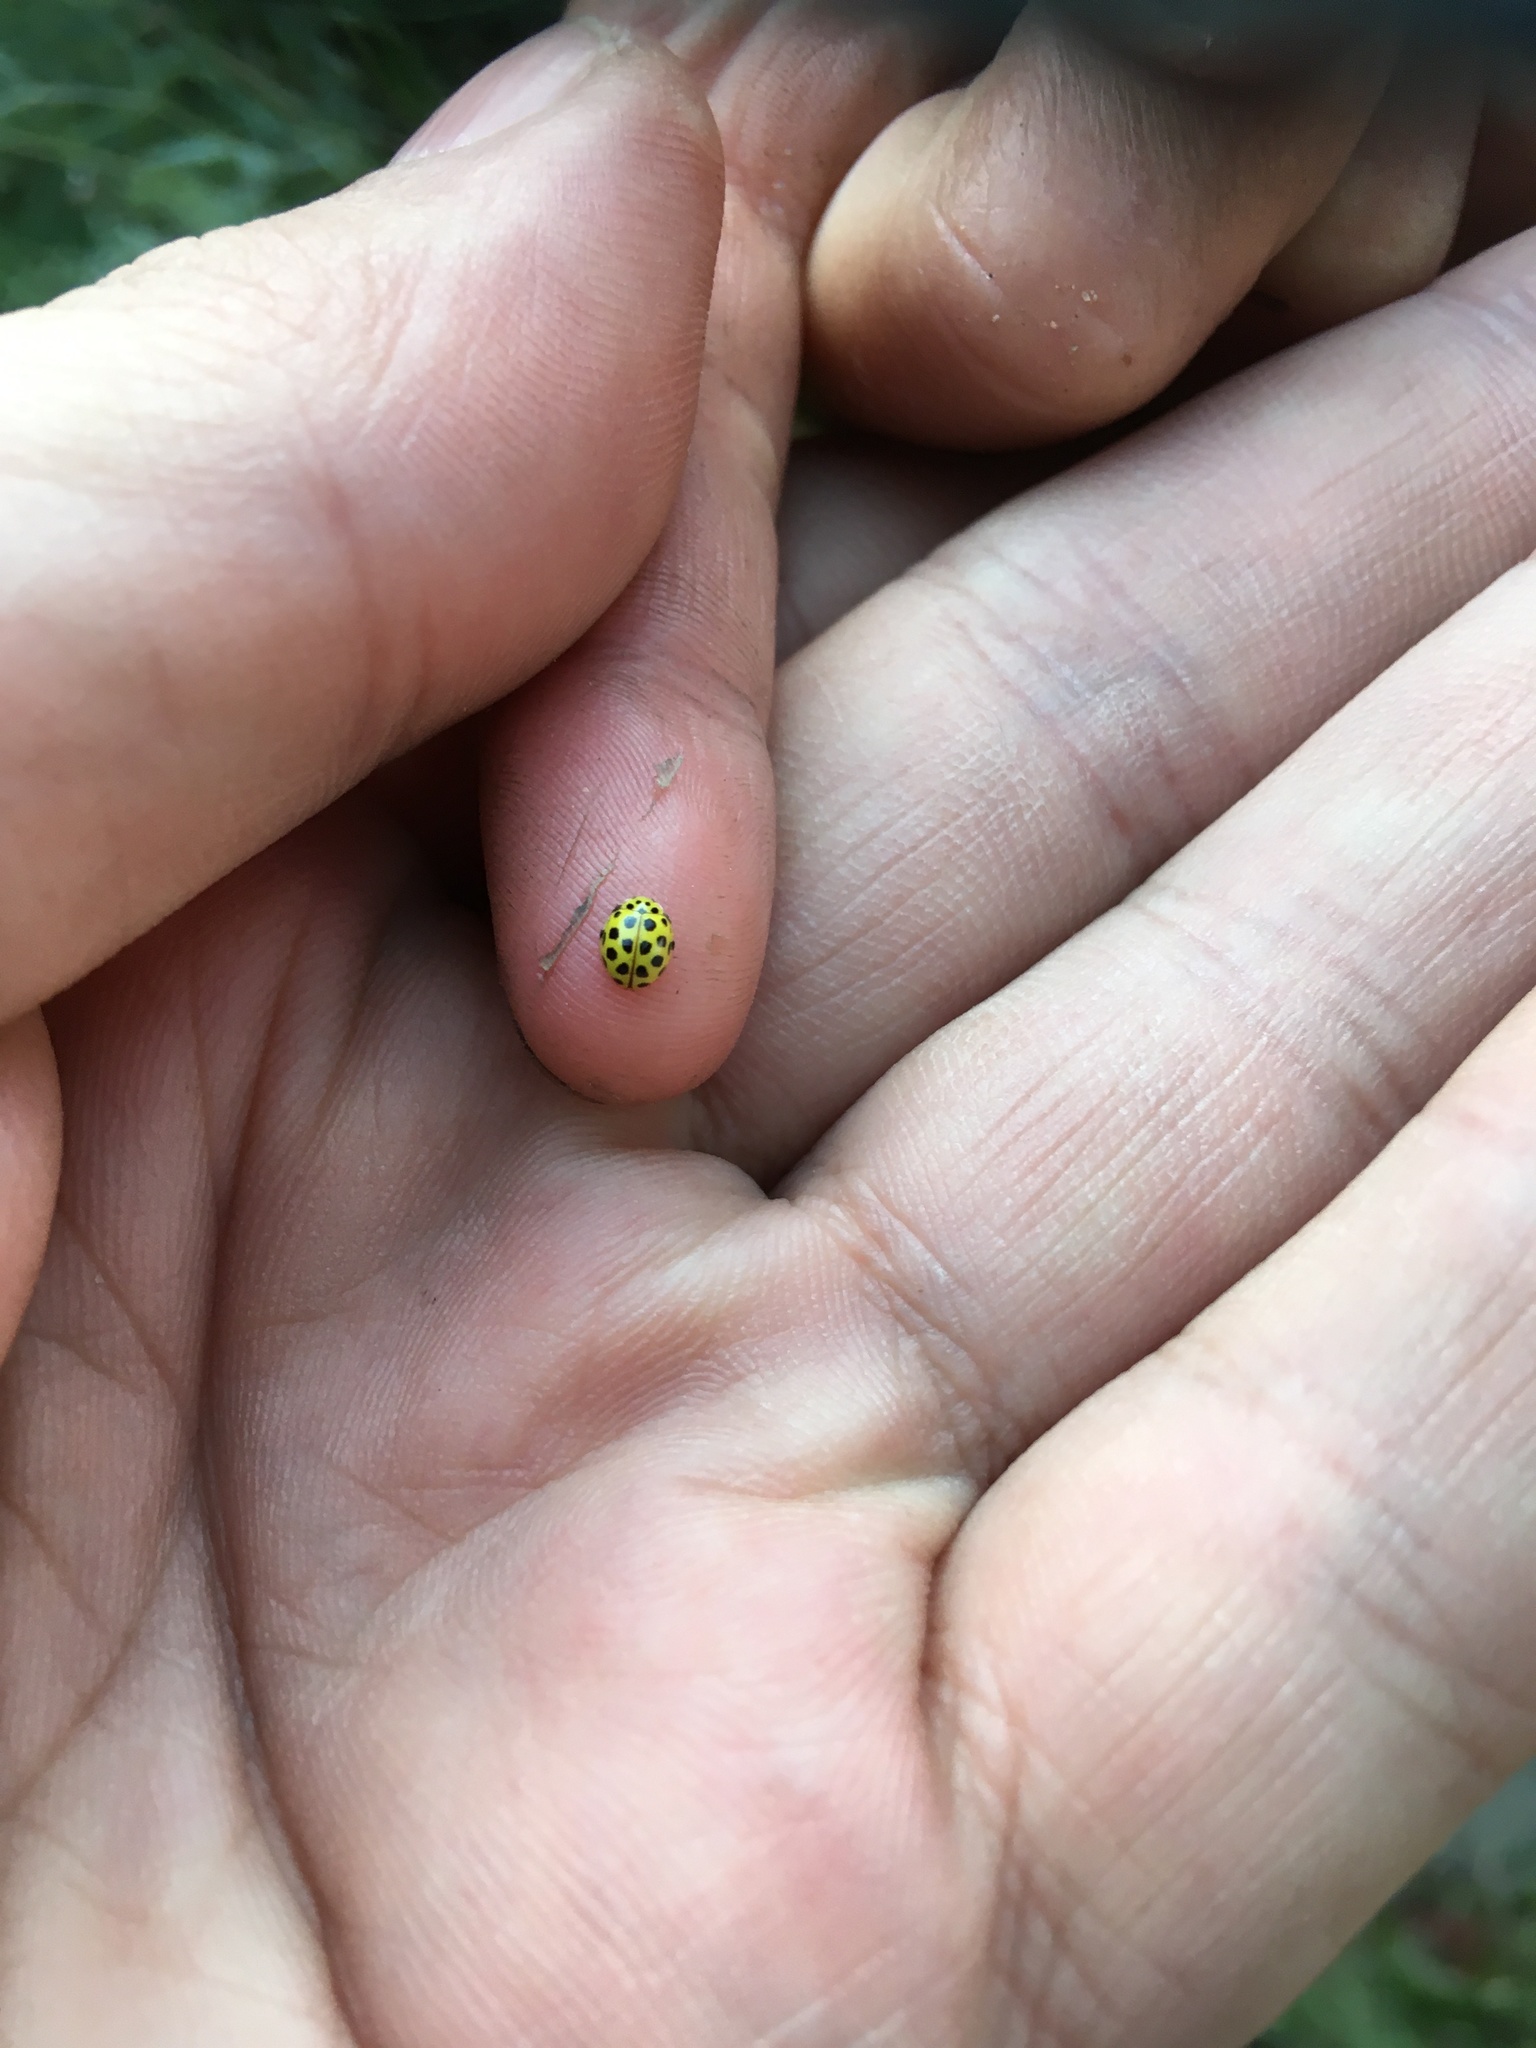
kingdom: Animalia
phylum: Arthropoda
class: Insecta
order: Coleoptera
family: Coccinellidae
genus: Psyllobora
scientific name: Psyllobora vigintiduopunctata
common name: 22-spot ladybird
